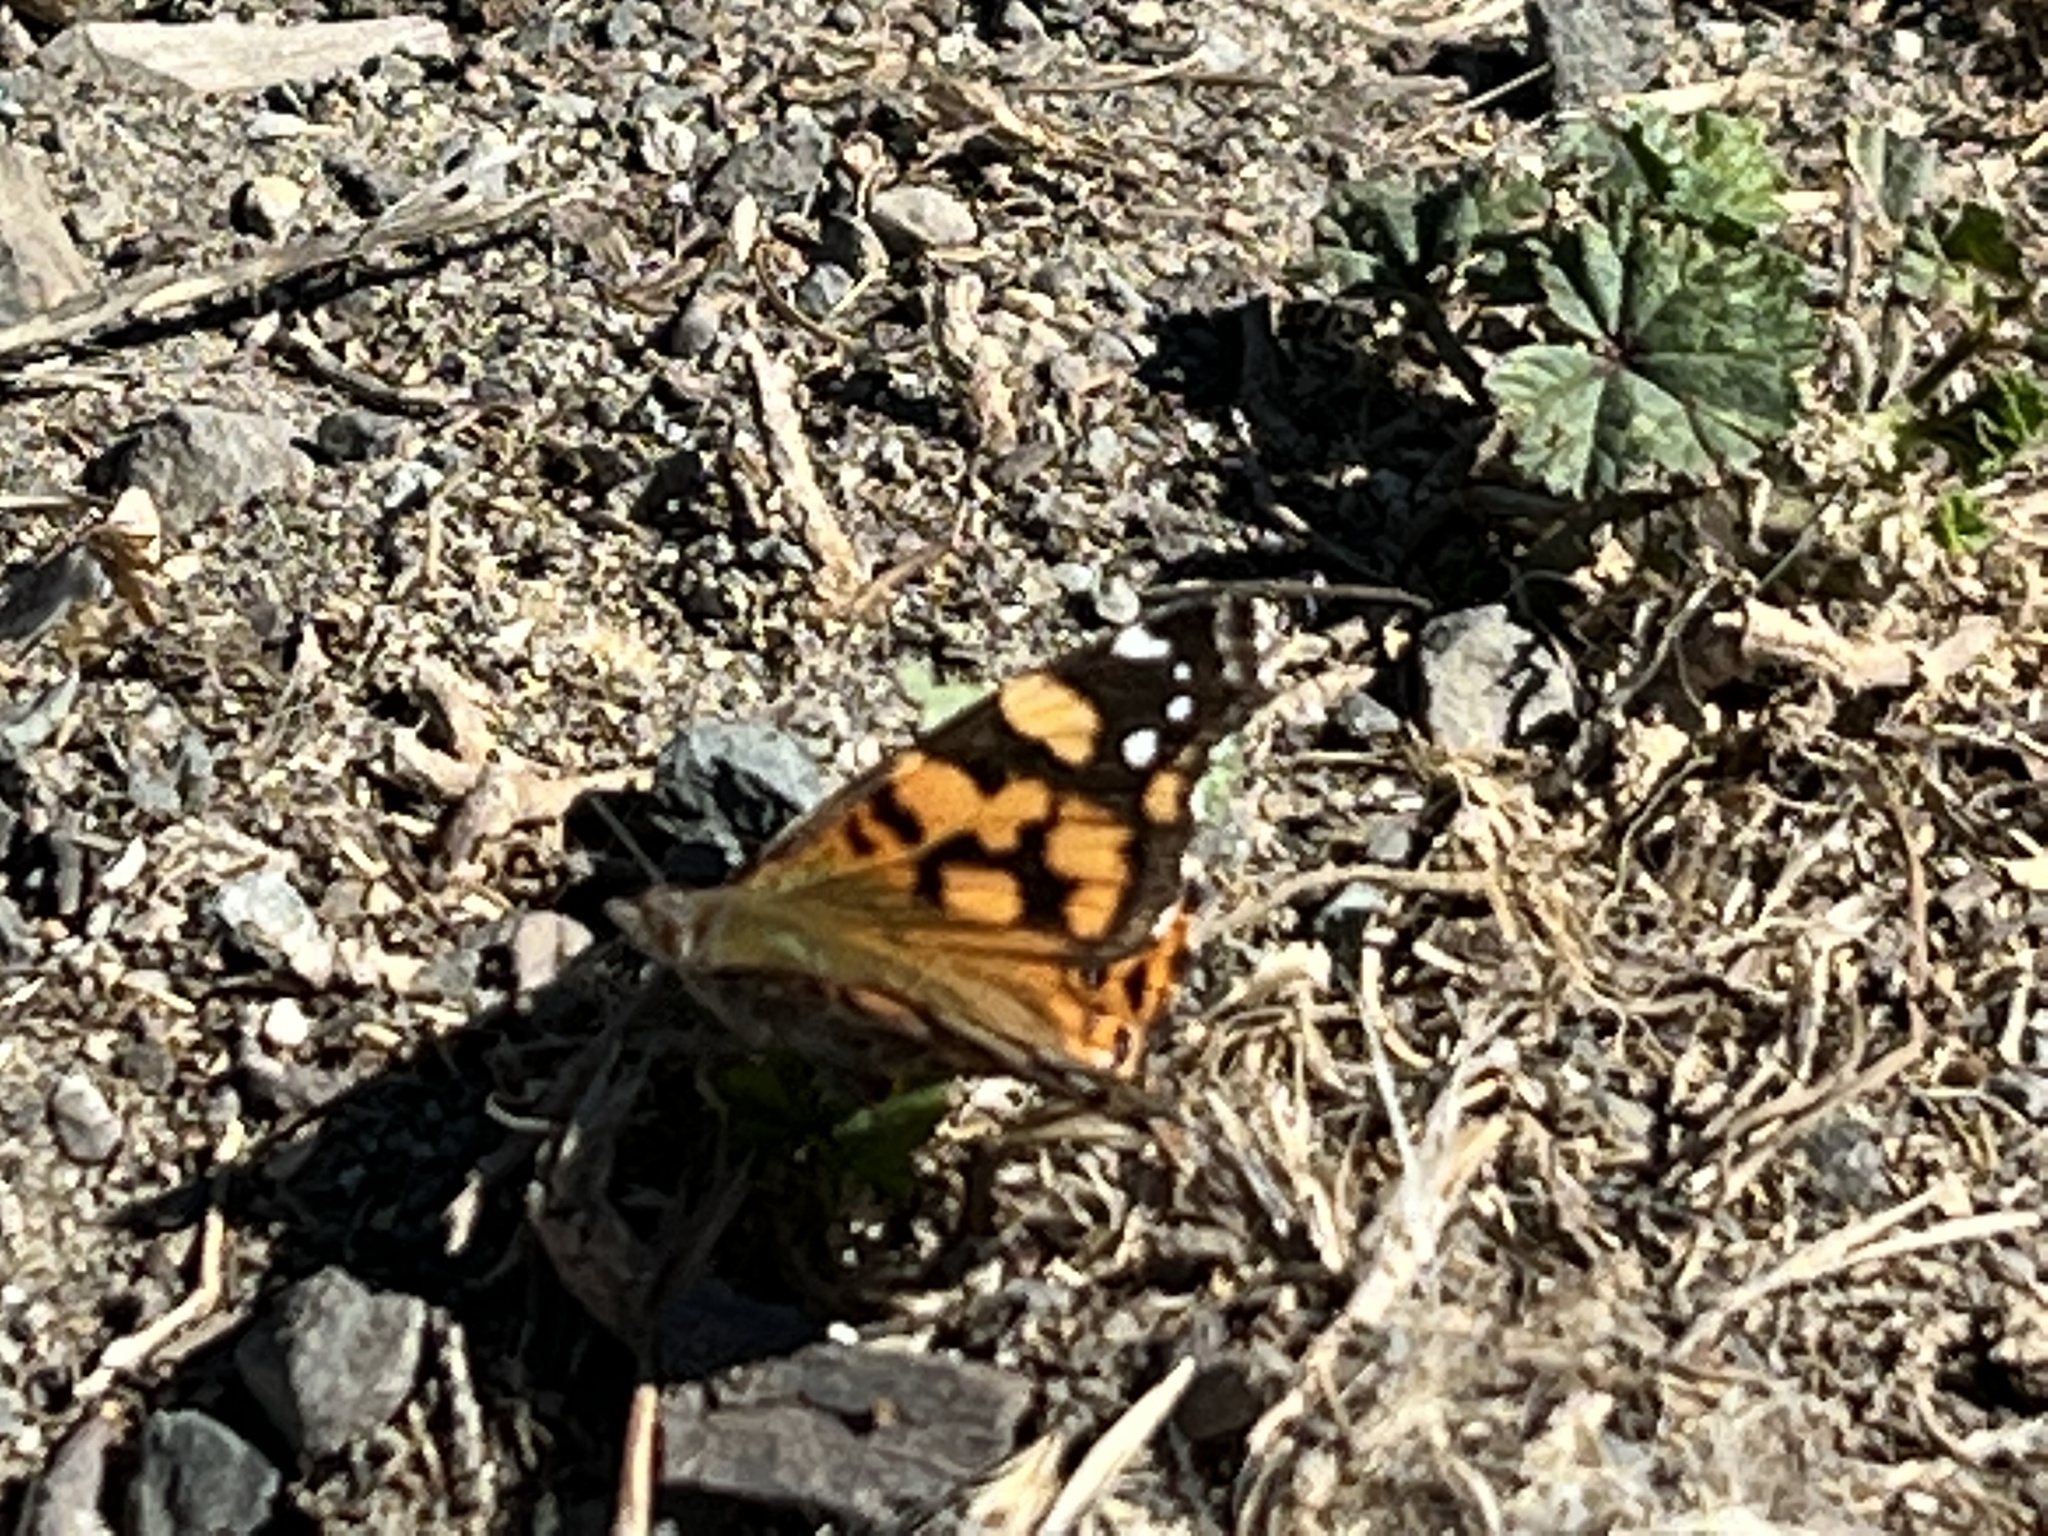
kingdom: Animalia
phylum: Arthropoda
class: Insecta
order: Lepidoptera
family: Nymphalidae
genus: Vanessa
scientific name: Vanessa annabella
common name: West coast lady
